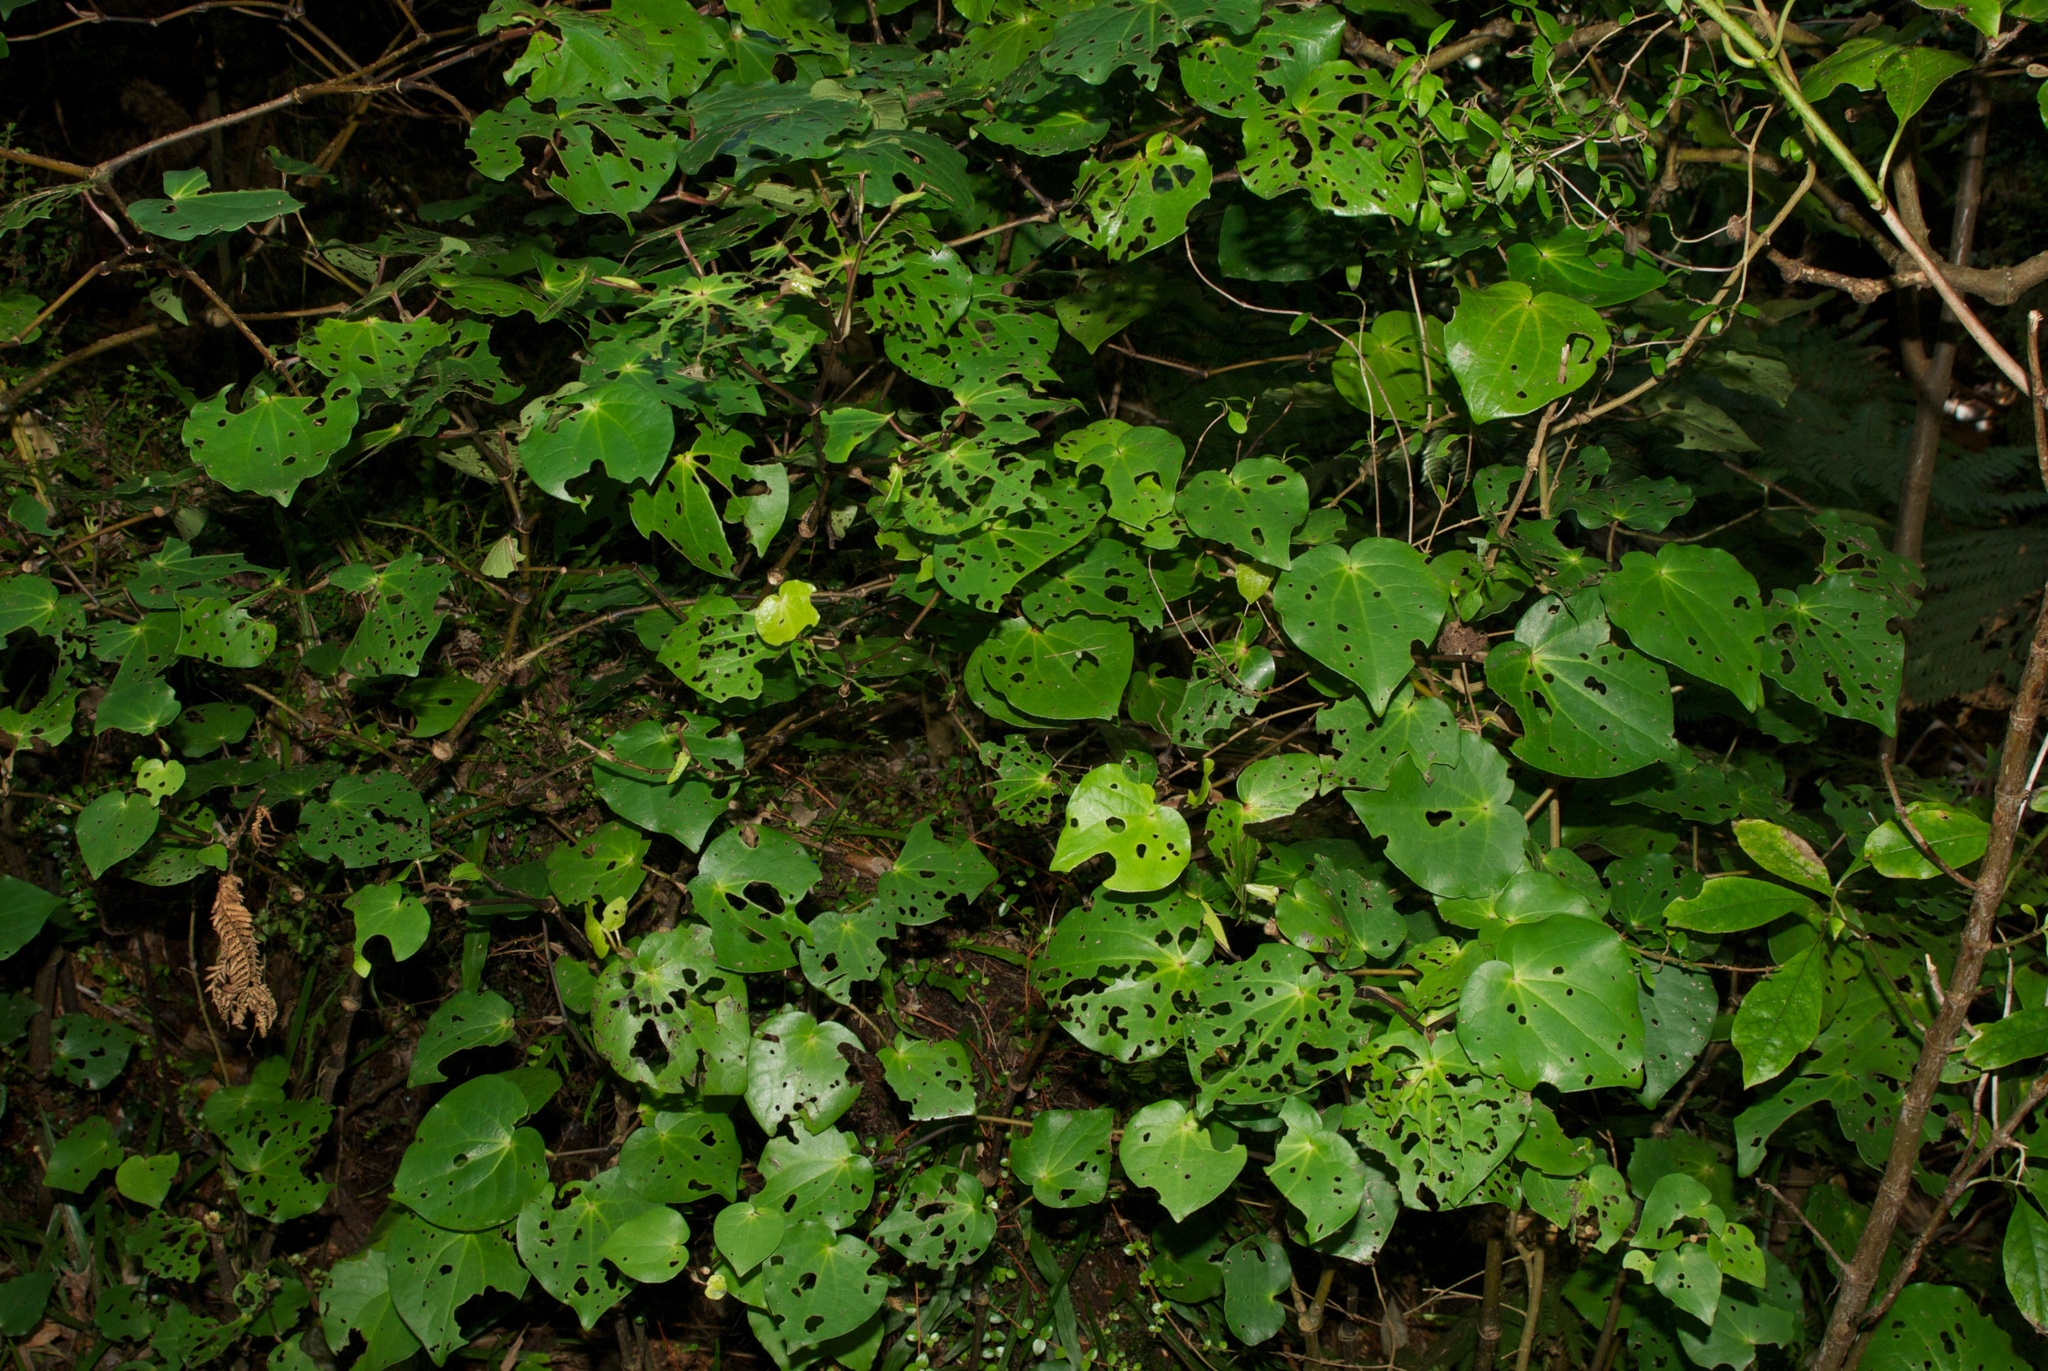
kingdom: Plantae
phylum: Tracheophyta
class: Magnoliopsida
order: Piperales
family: Piperaceae
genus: Macropiper
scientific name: Macropiper excelsum
